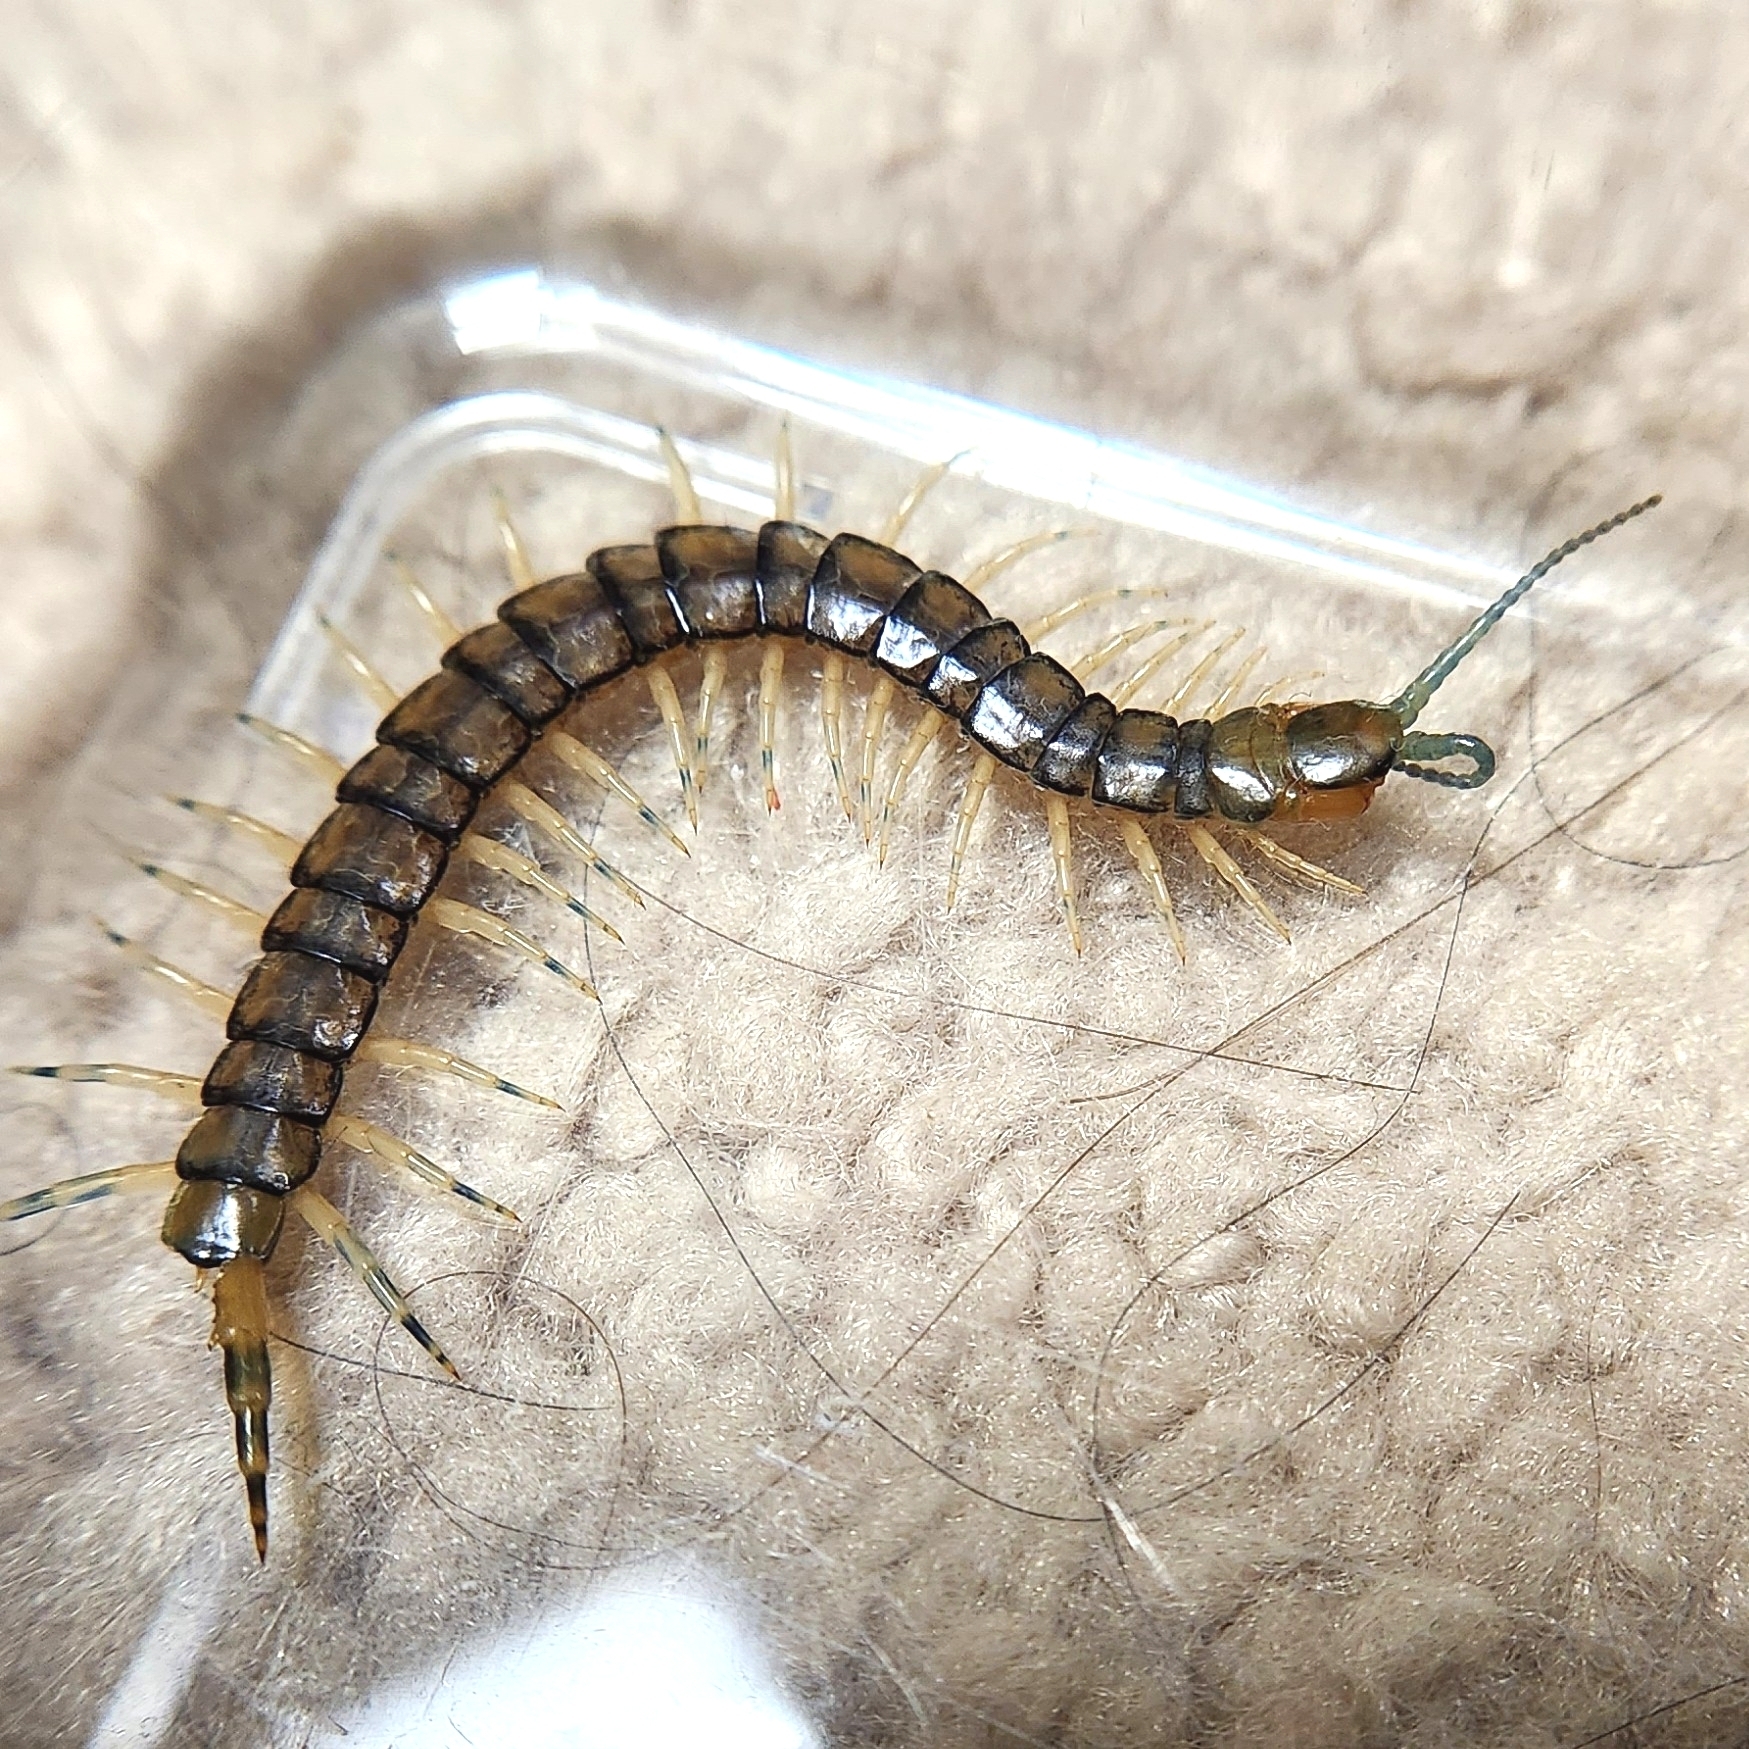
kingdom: Animalia
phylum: Arthropoda
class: Chilopoda
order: Scolopendromorpha
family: Scolopendridae
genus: Hemiscolopendra
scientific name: Hemiscolopendra marginata
